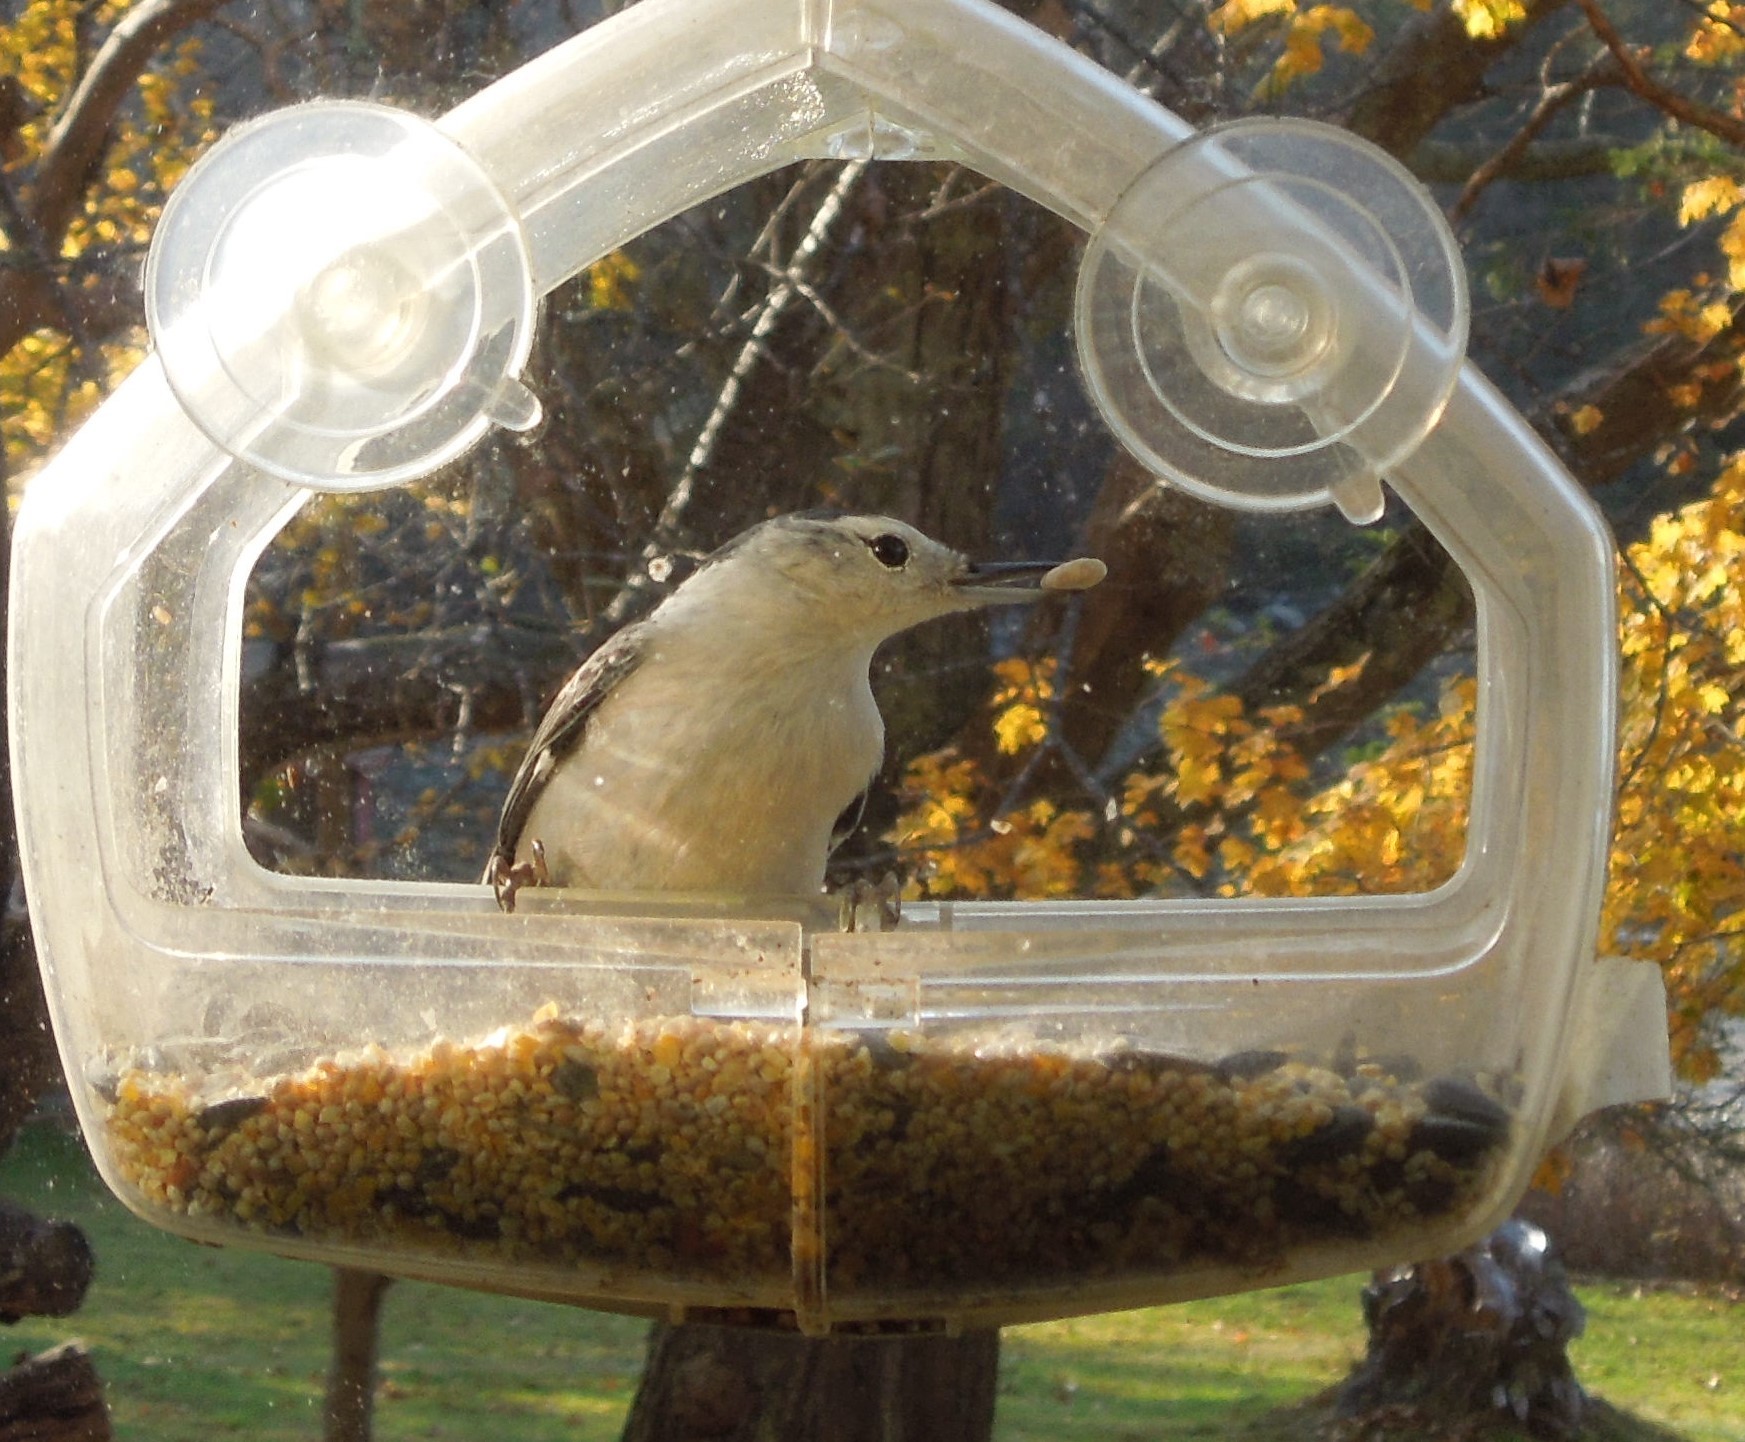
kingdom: Animalia
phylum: Chordata
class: Aves
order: Passeriformes
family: Sittidae
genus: Sitta
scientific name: Sitta carolinensis
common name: White-breasted nuthatch
